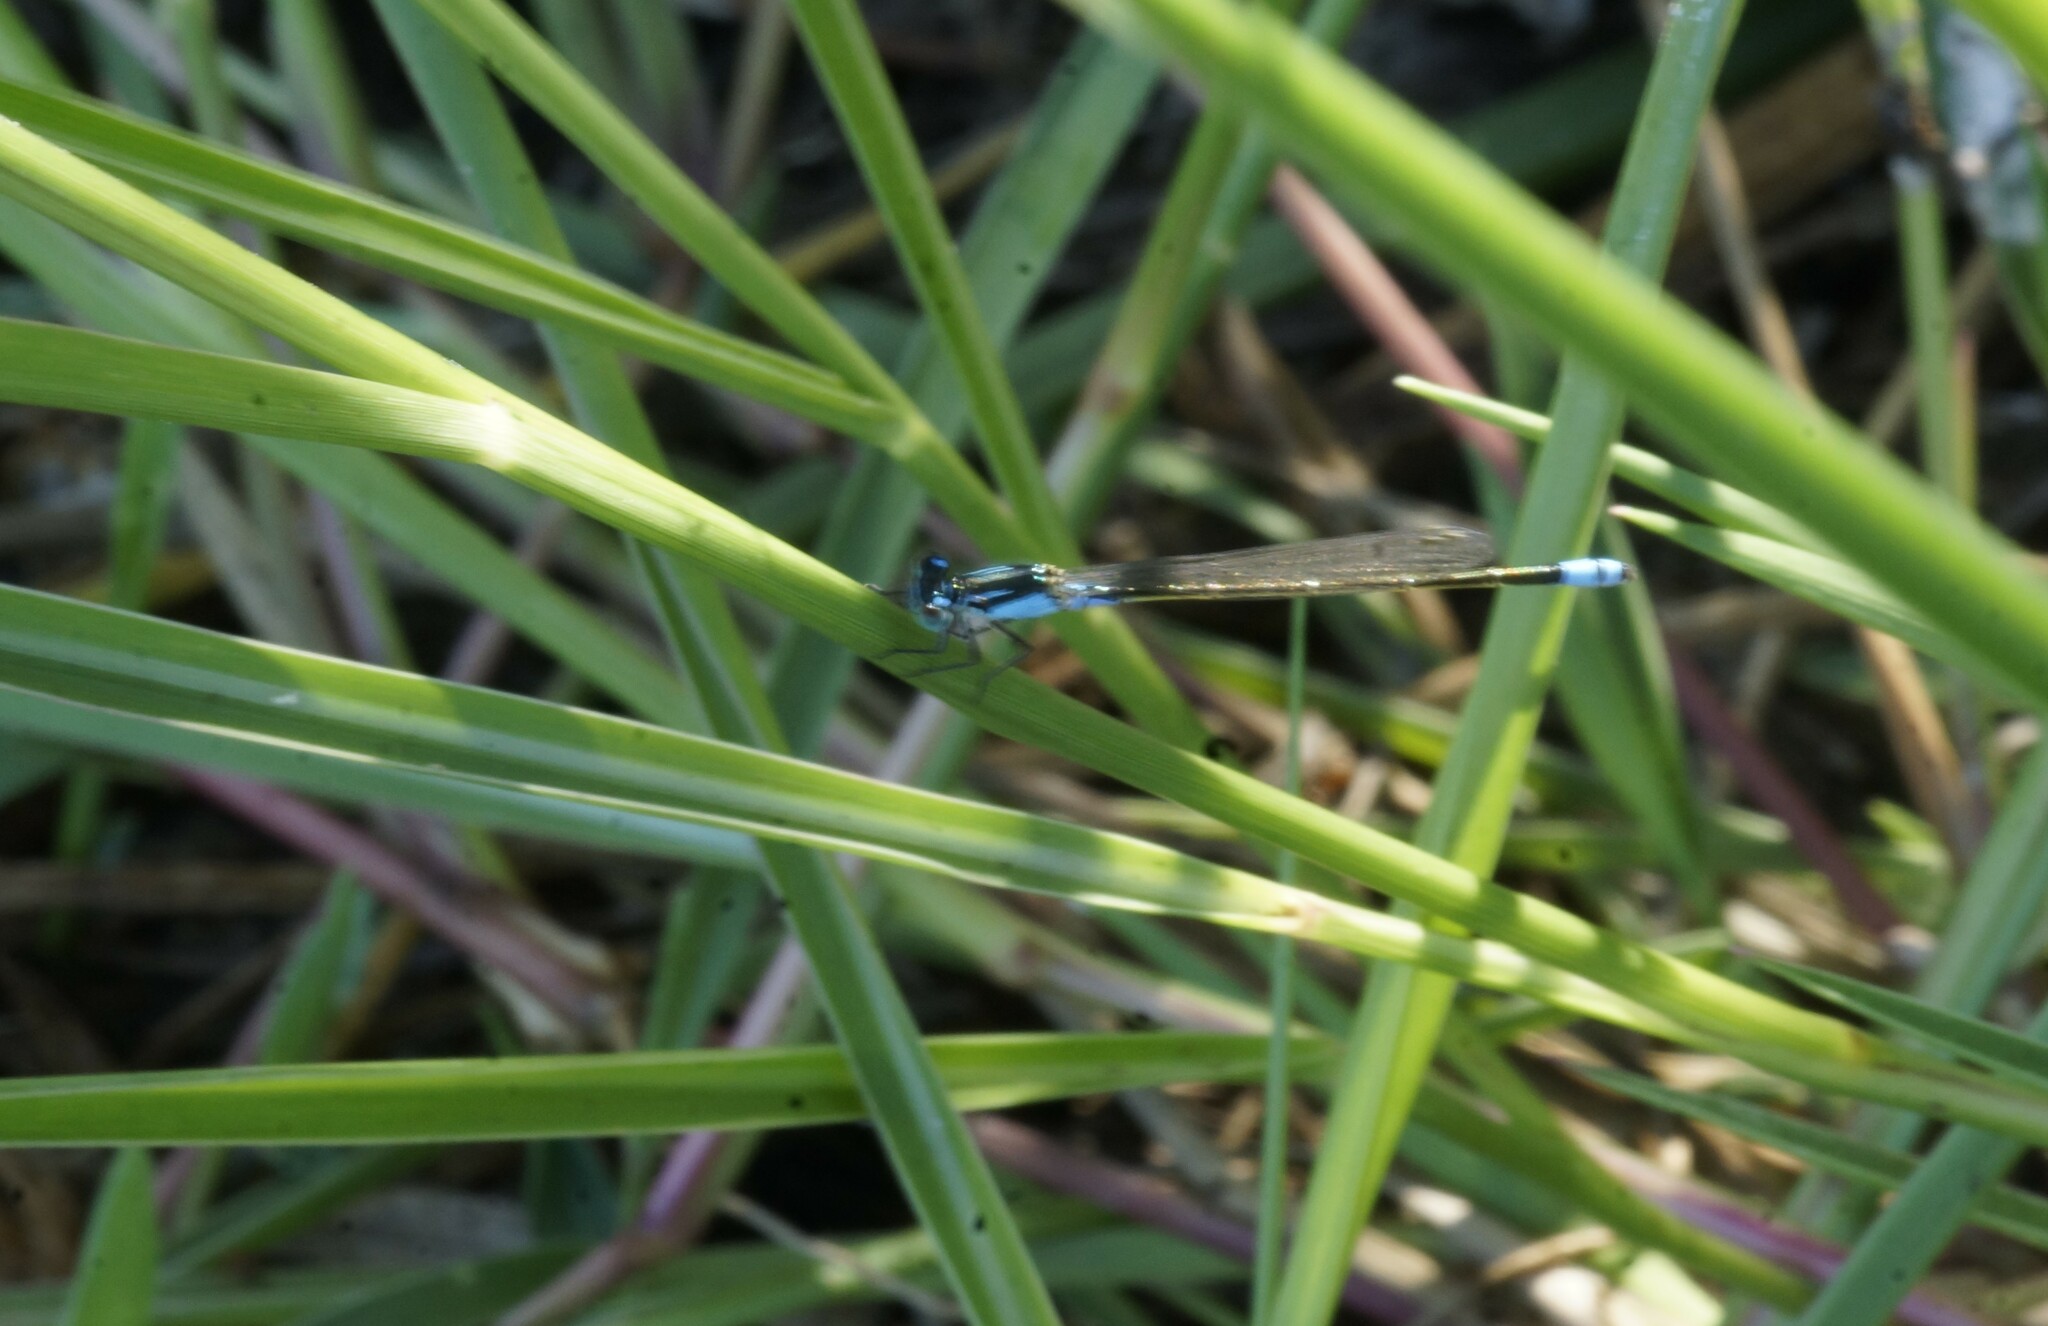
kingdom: Animalia
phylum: Arthropoda
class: Insecta
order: Odonata
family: Coenagrionidae
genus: Ischnura
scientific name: Ischnura heterosticta
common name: Common bluetail
